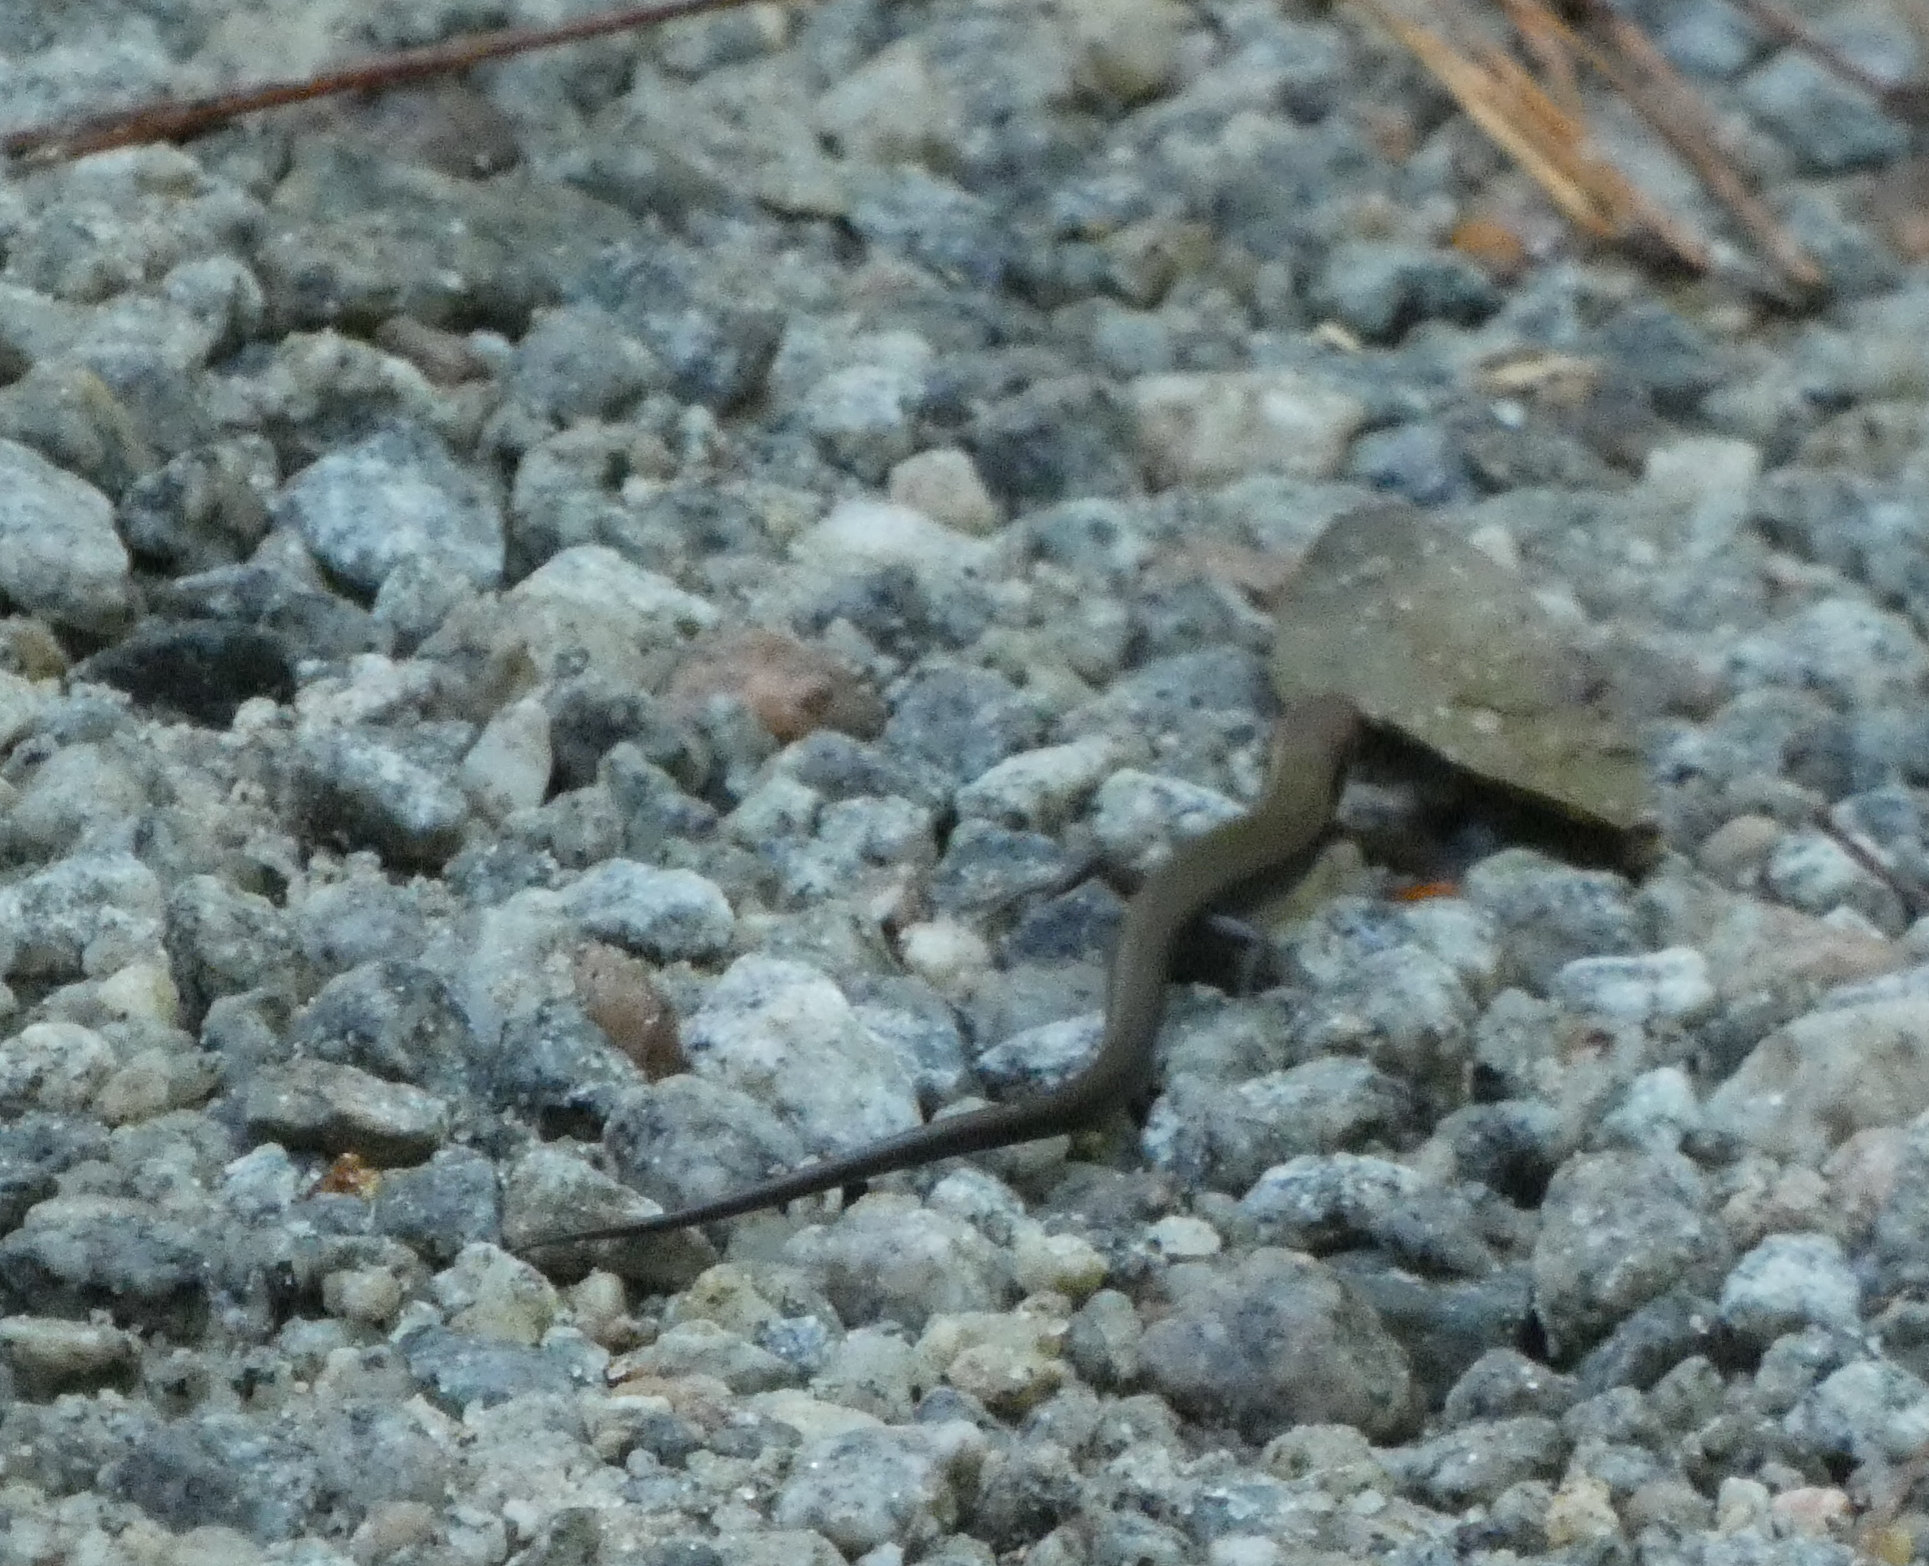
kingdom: Animalia
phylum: Chordata
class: Squamata
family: Scincidae
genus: Scincella
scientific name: Scincella lateralis
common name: Ground skink
